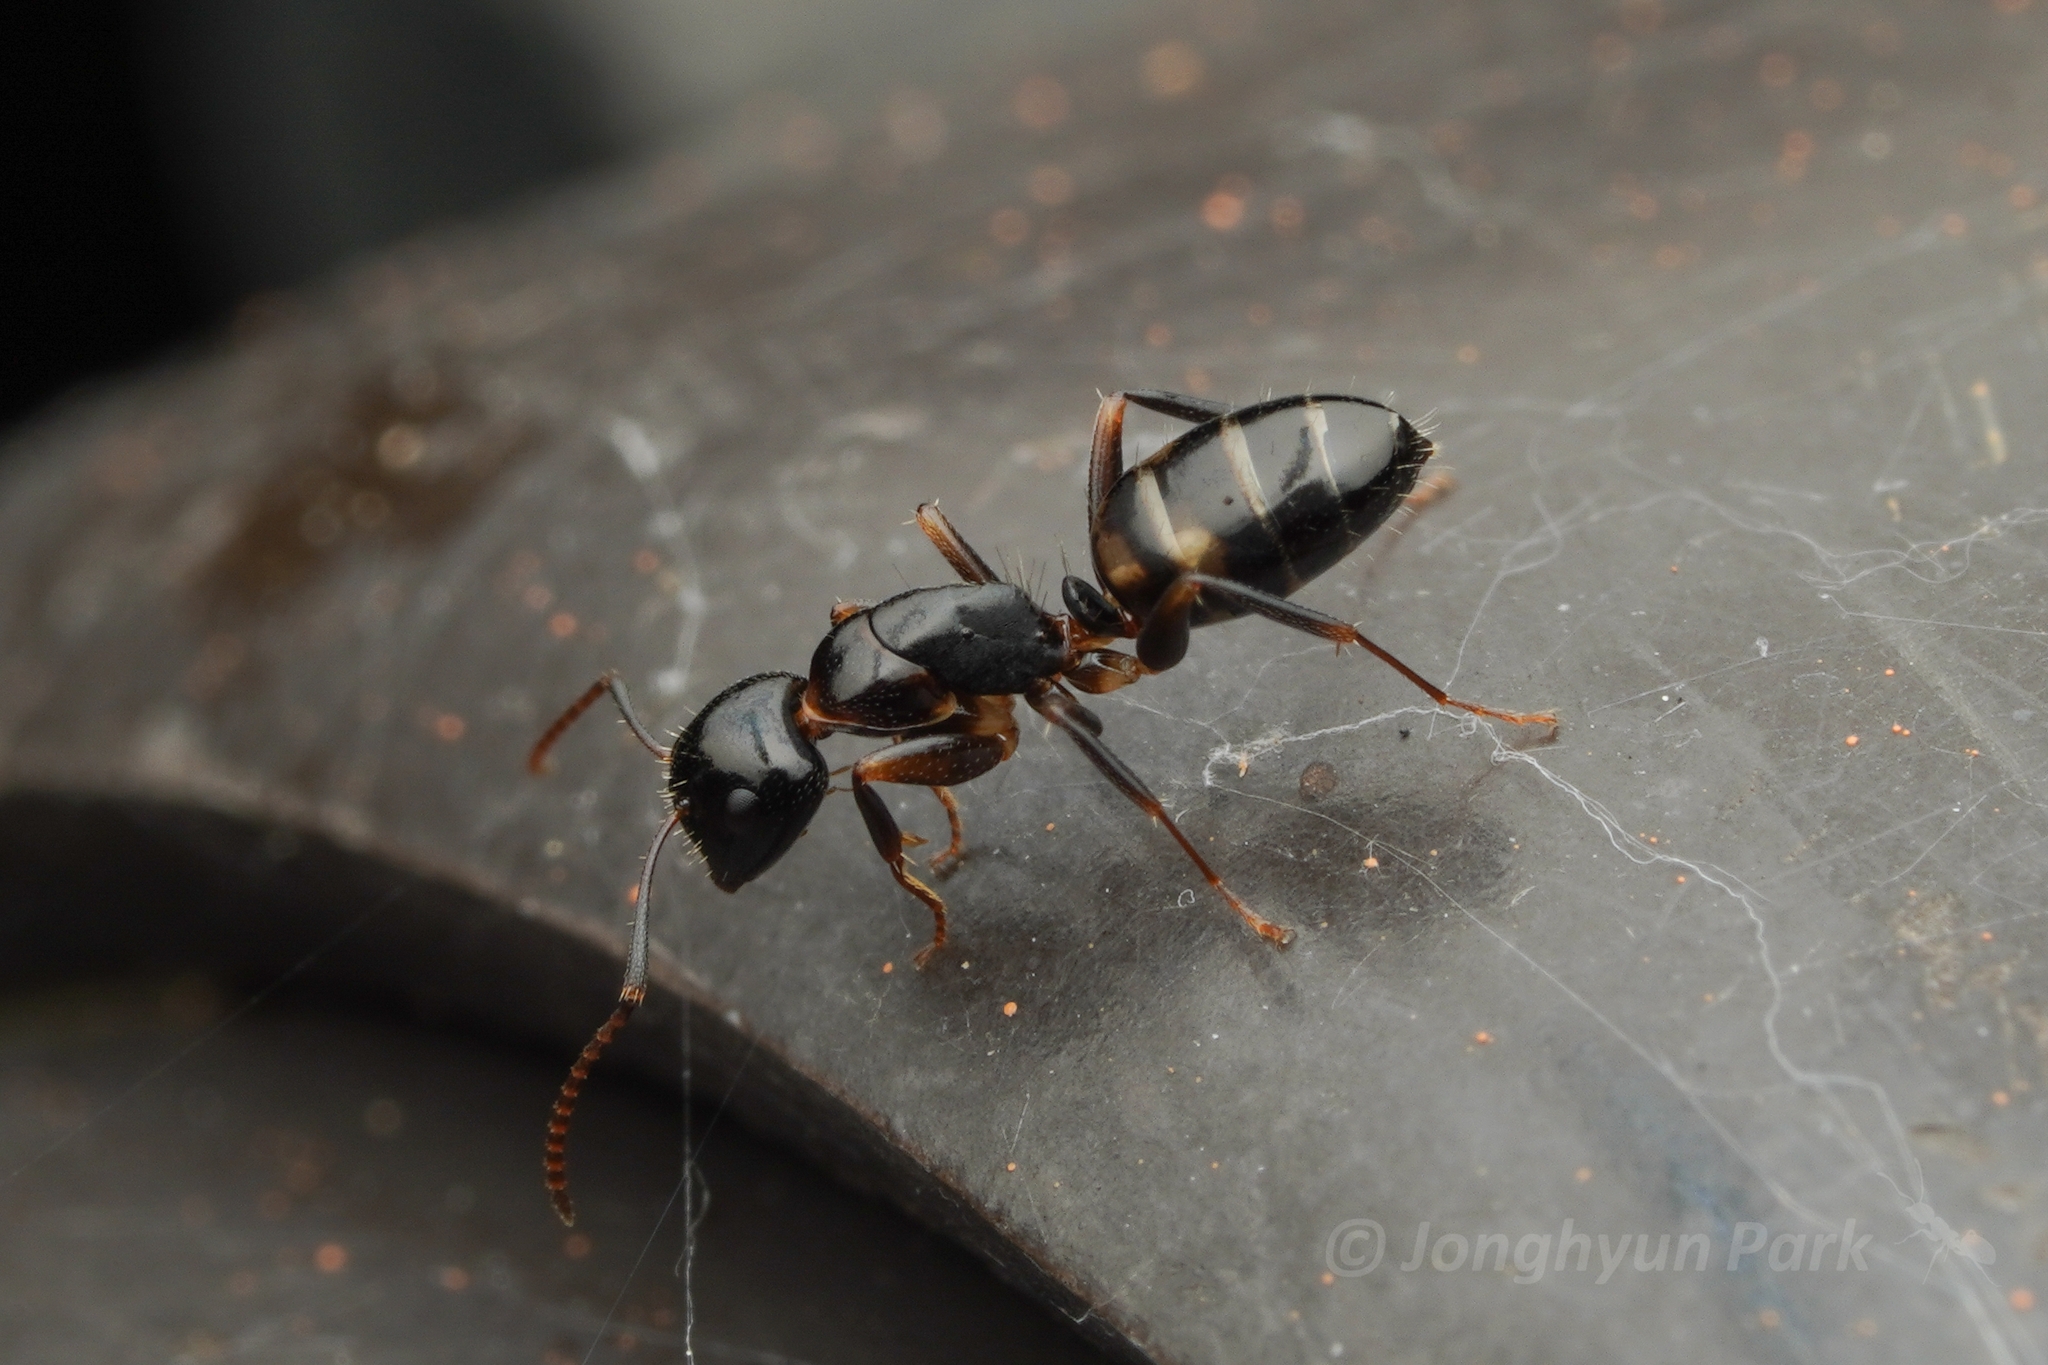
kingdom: Animalia
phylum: Arthropoda
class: Insecta
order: Hymenoptera
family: Formicidae
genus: Camponotus
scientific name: Camponotus nawai
